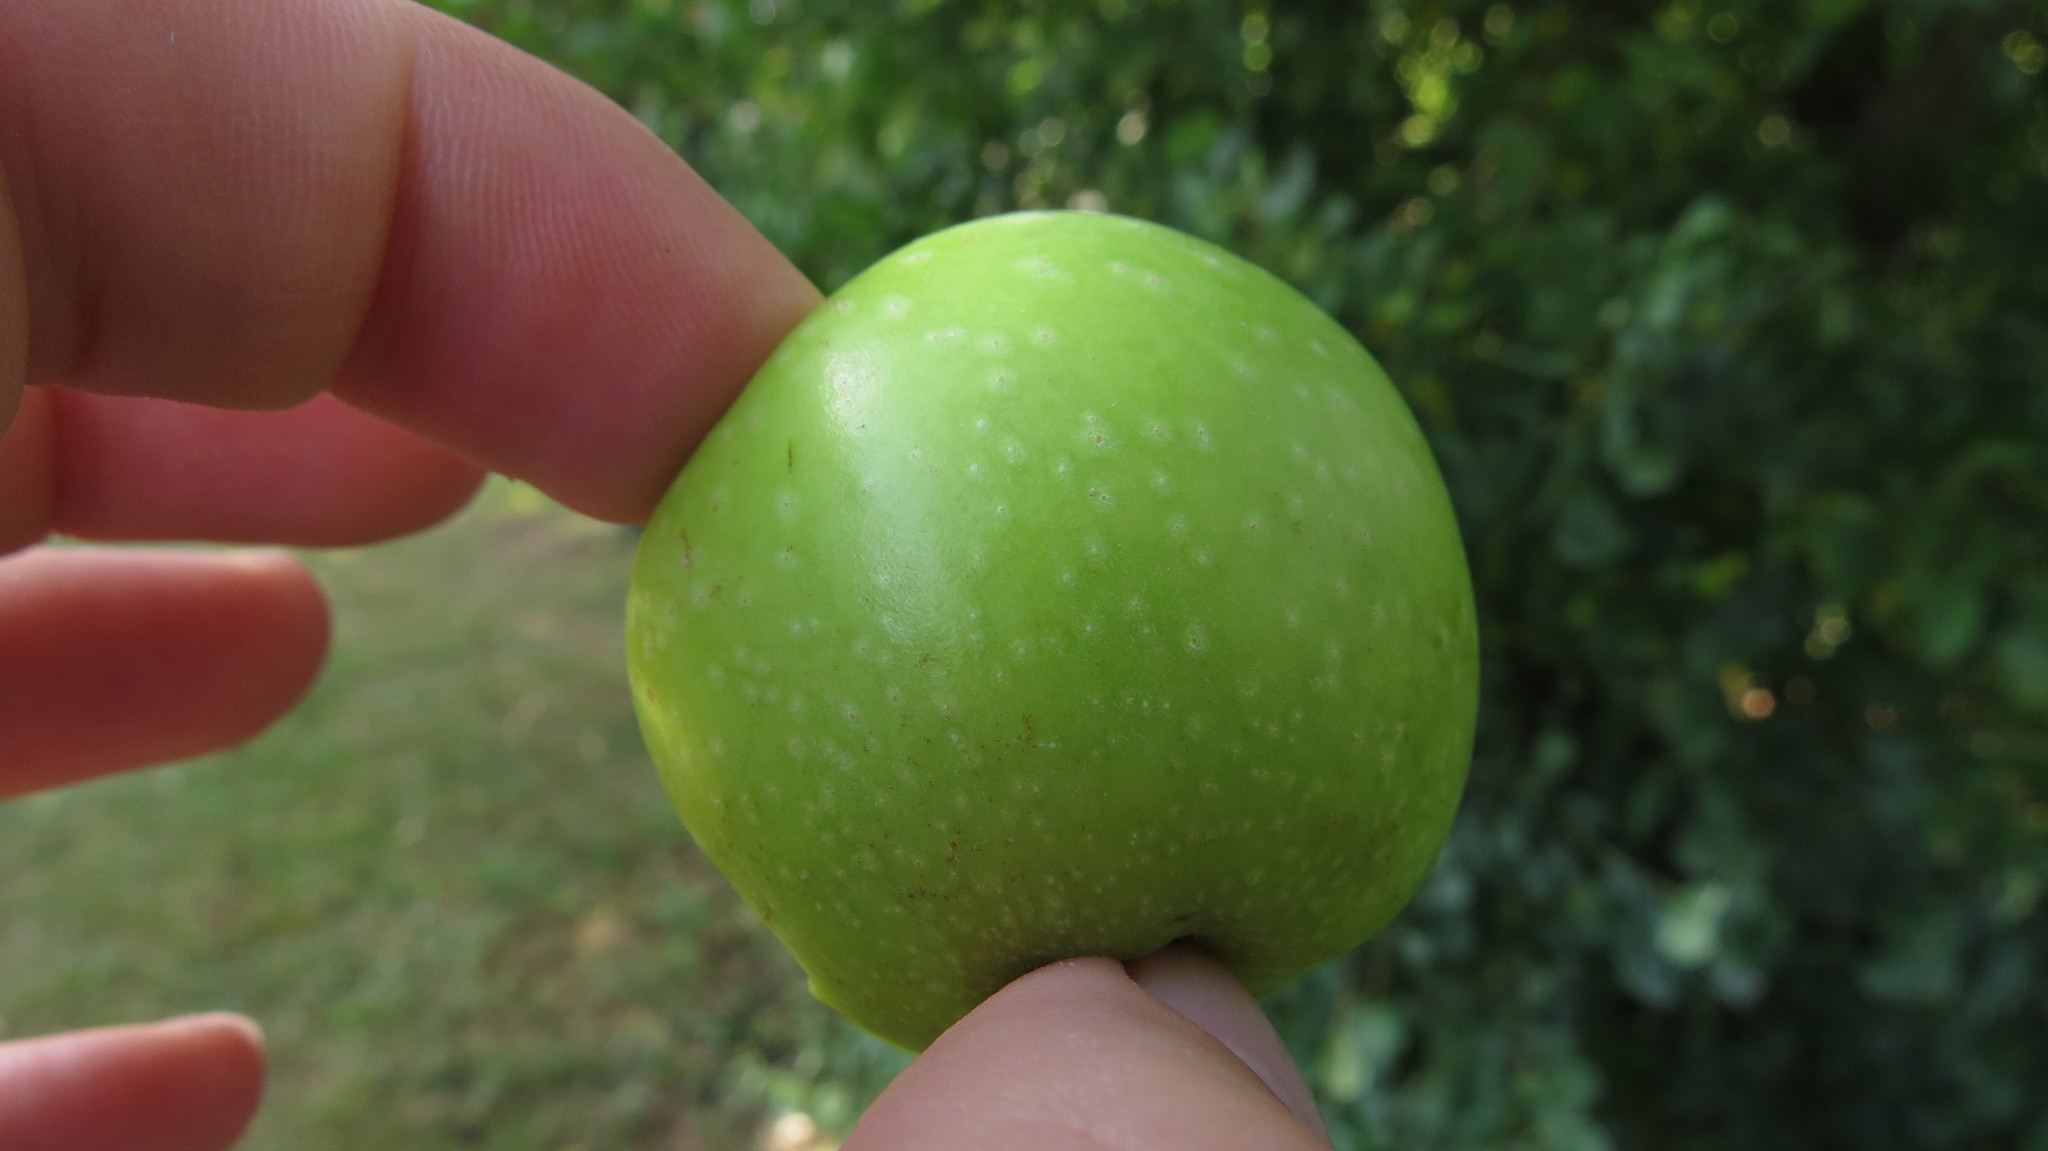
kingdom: Plantae
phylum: Tracheophyta
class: Magnoliopsida
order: Rosales
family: Rosaceae
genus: Malus
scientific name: Malus domestica
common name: Apple
